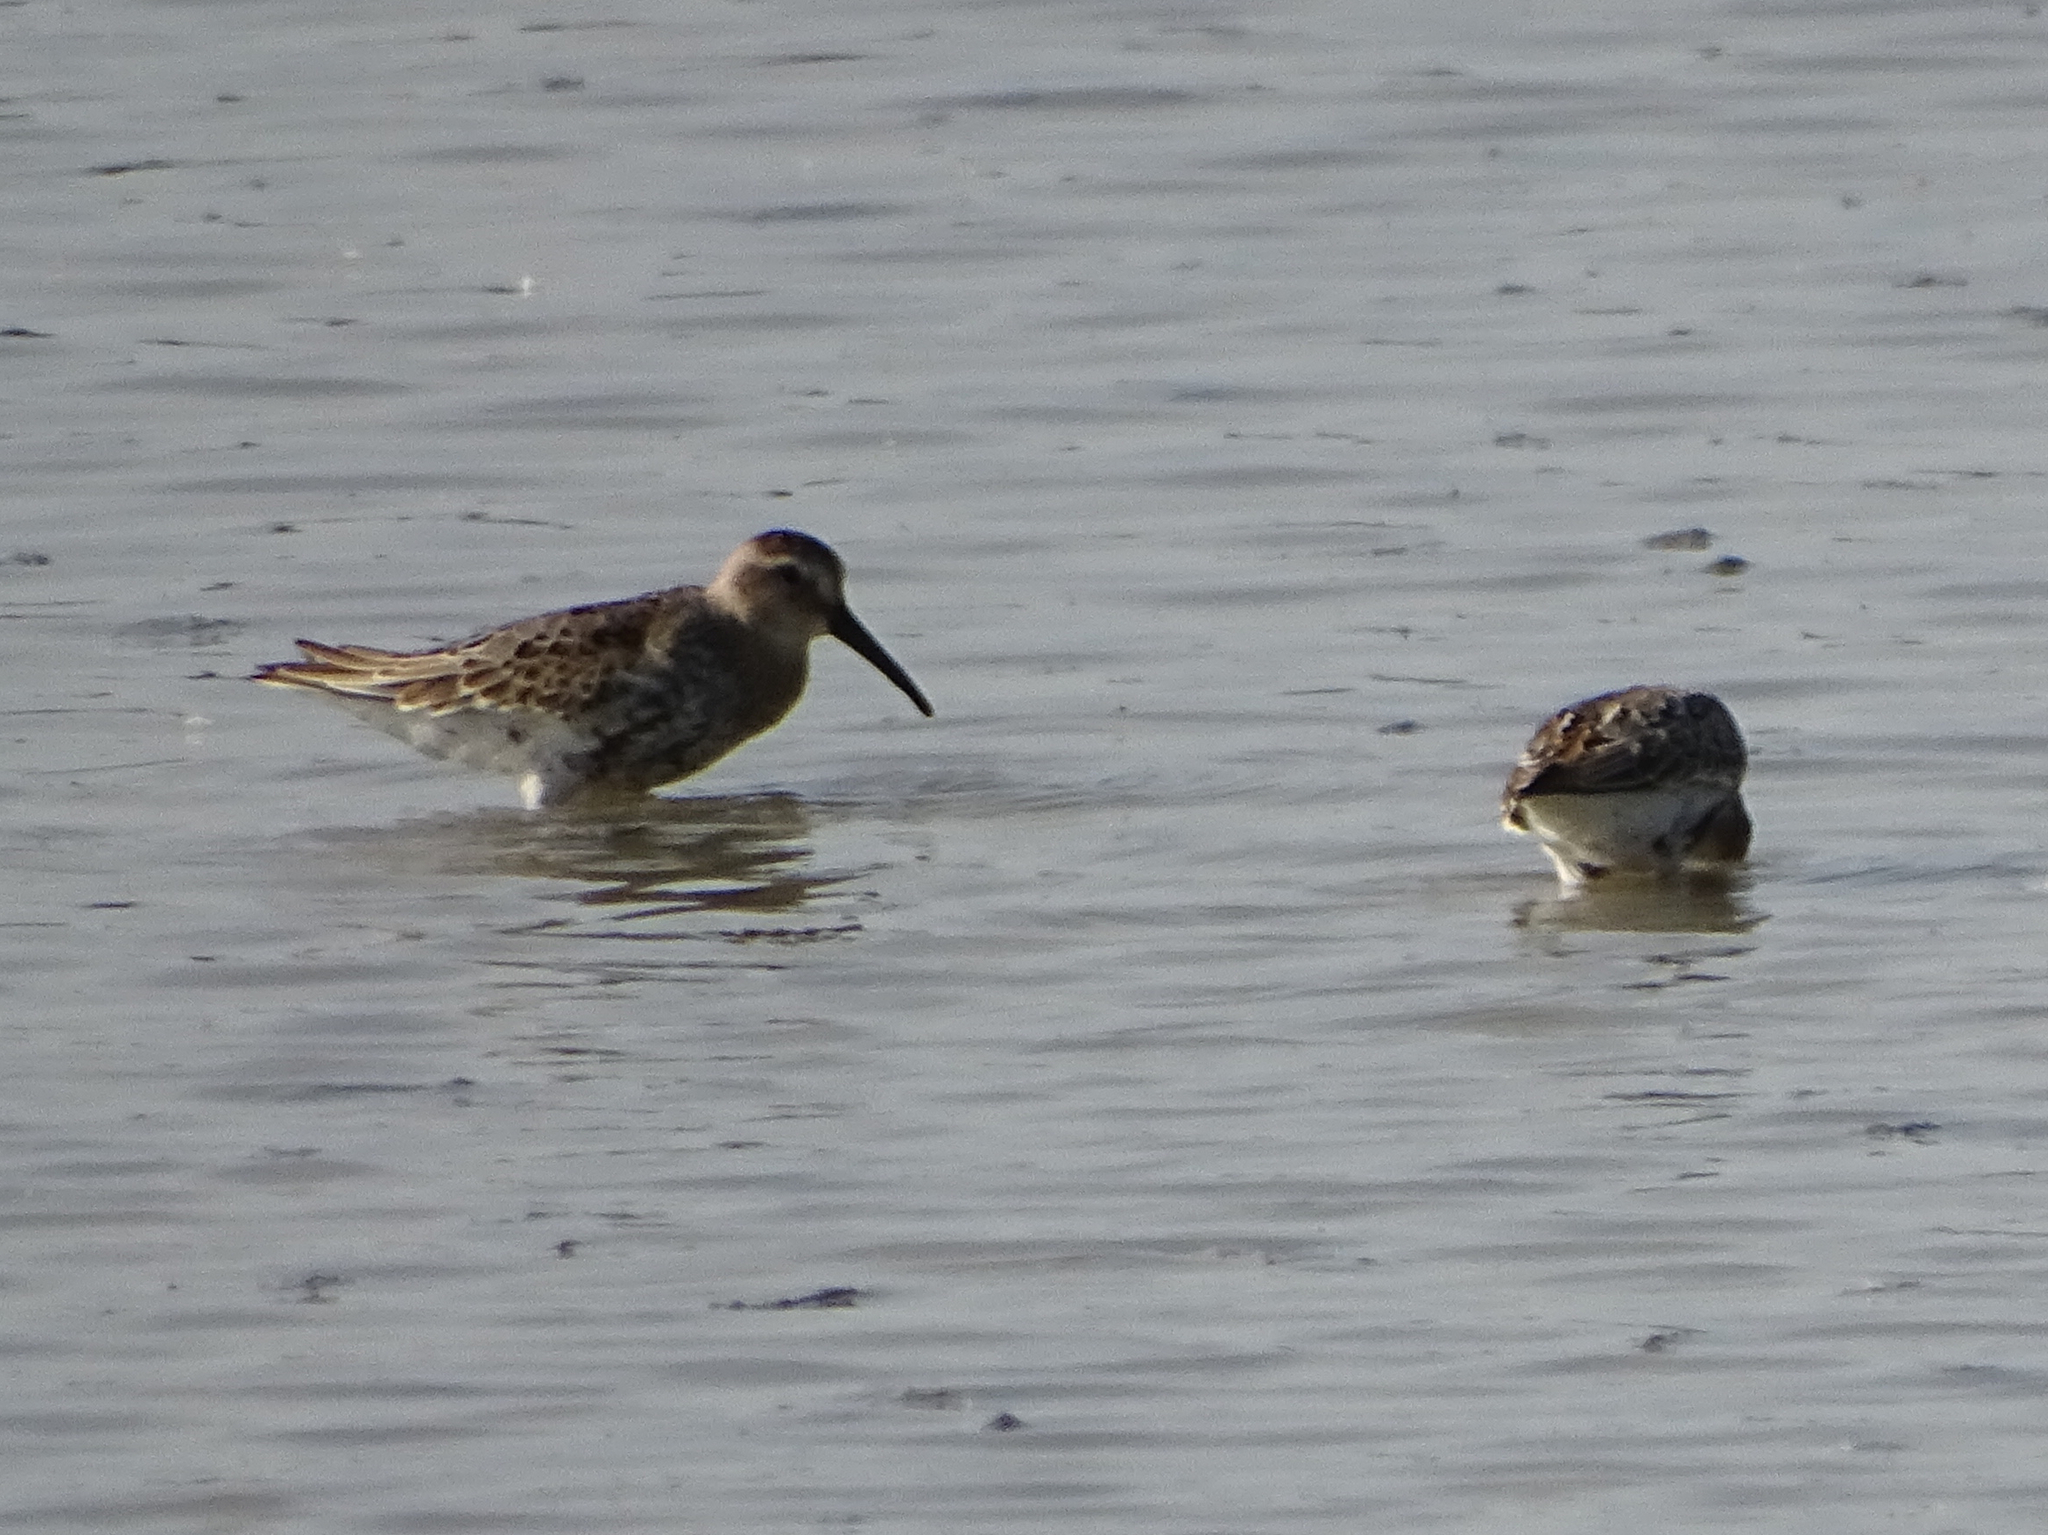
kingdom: Animalia
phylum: Chordata
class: Aves
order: Charadriiformes
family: Scolopacidae
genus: Calidris
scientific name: Calidris alpina
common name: Dunlin
